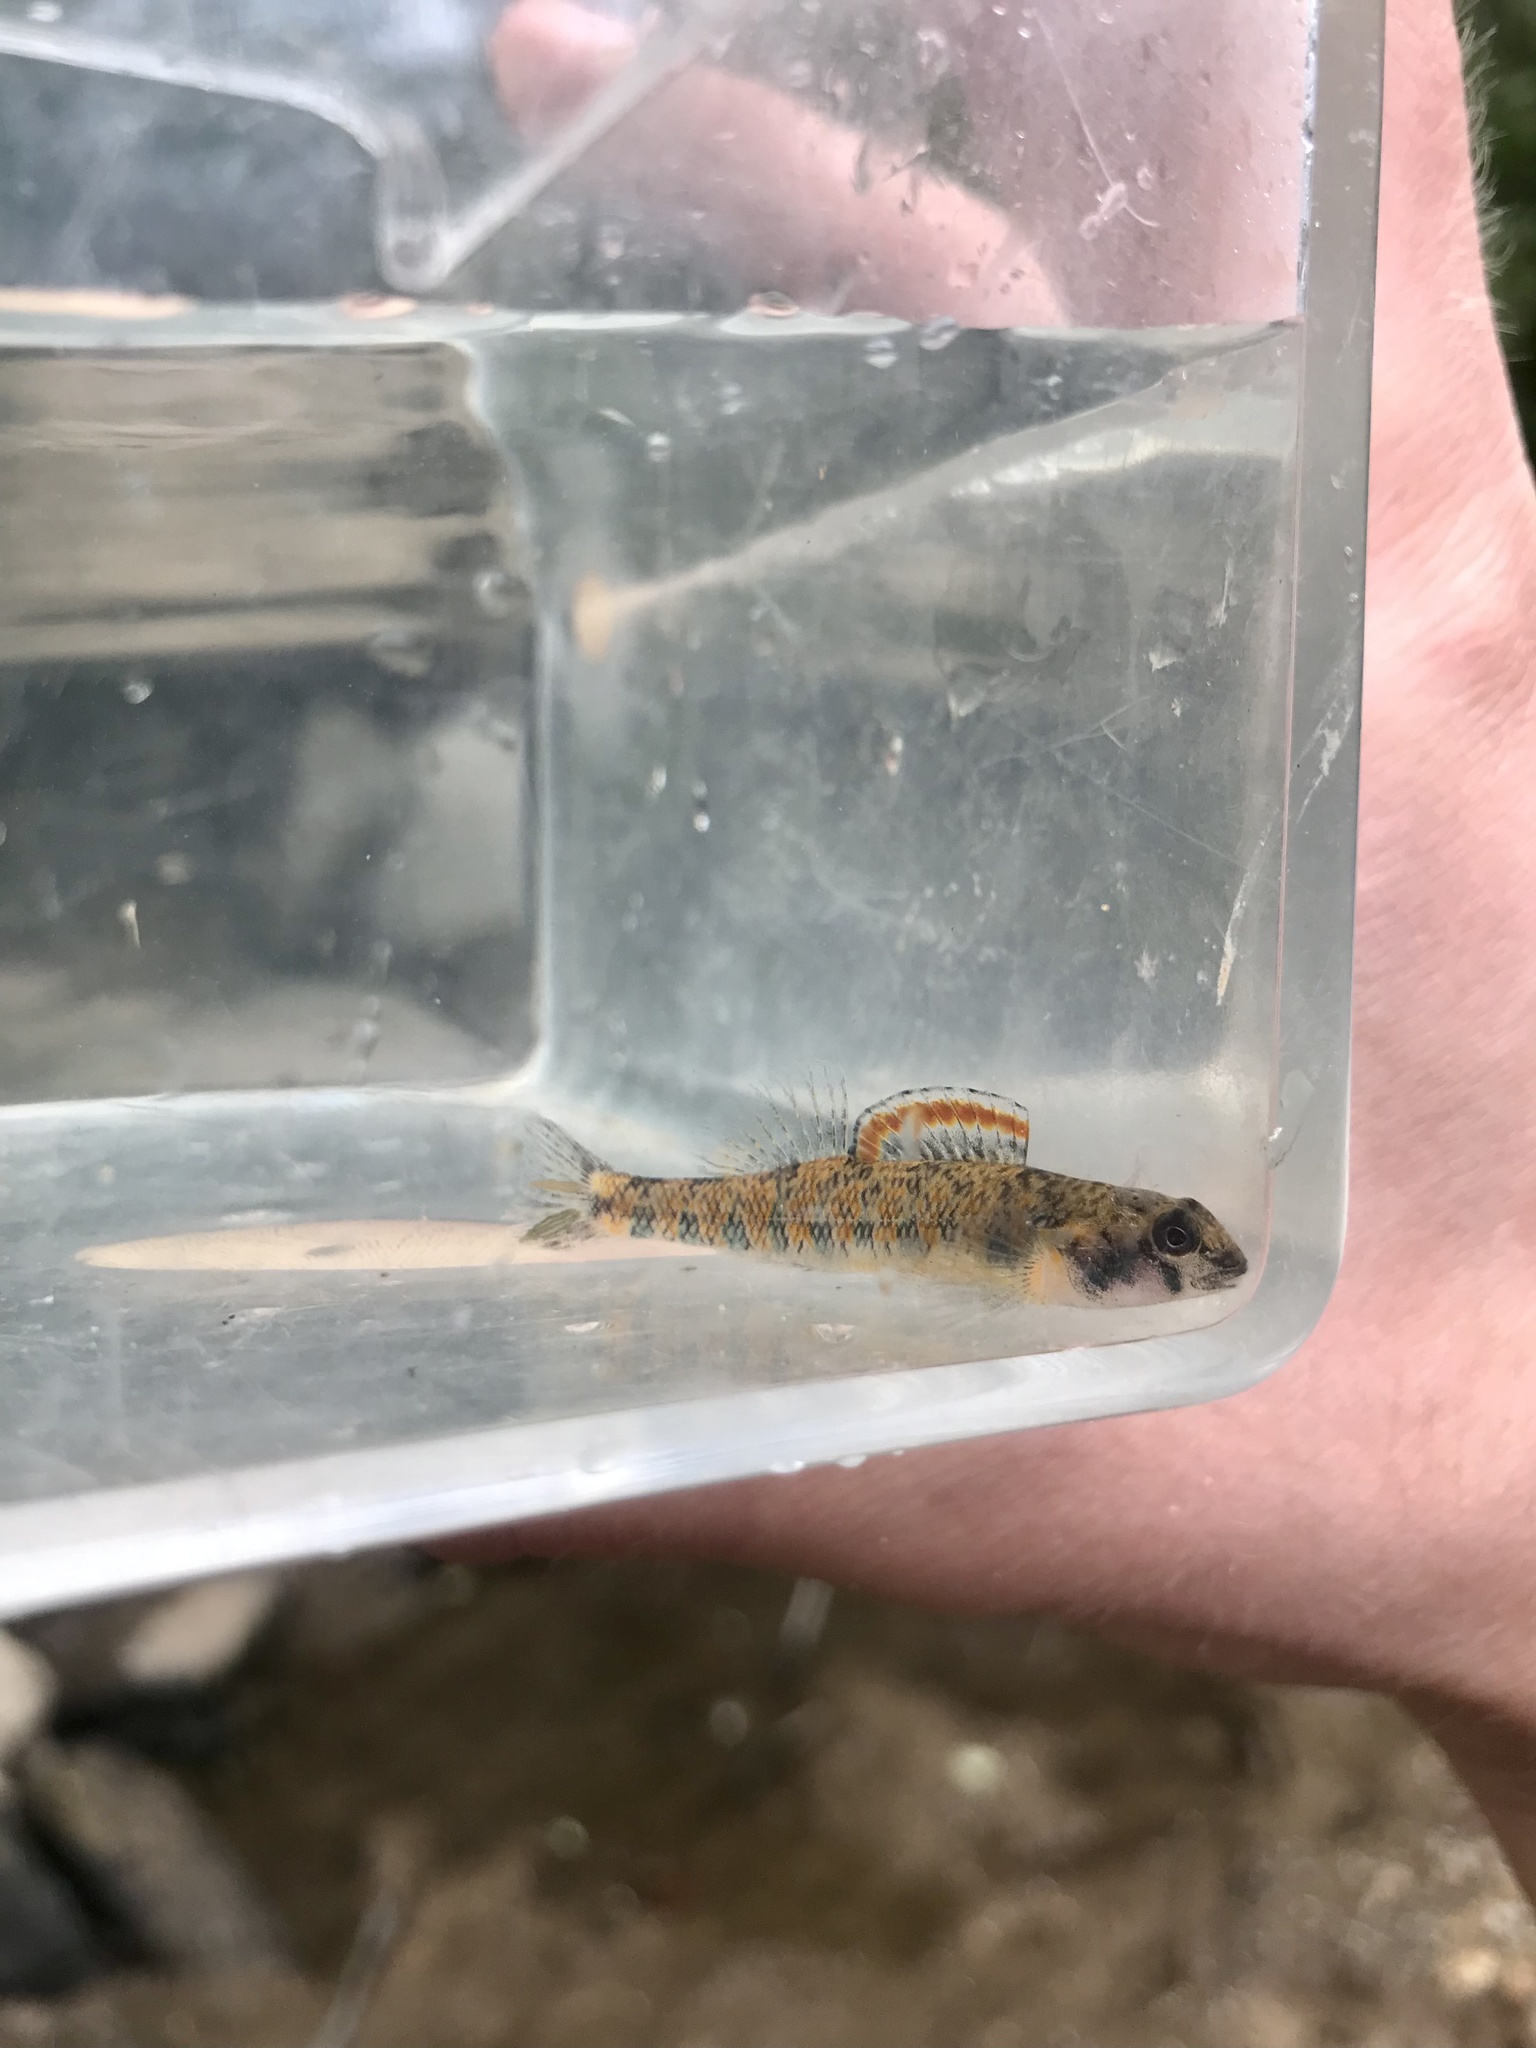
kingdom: Animalia
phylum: Chordata
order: Perciformes
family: Percidae
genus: Etheostoma
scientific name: Etheostoma stigmaeum
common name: Speckled darter
